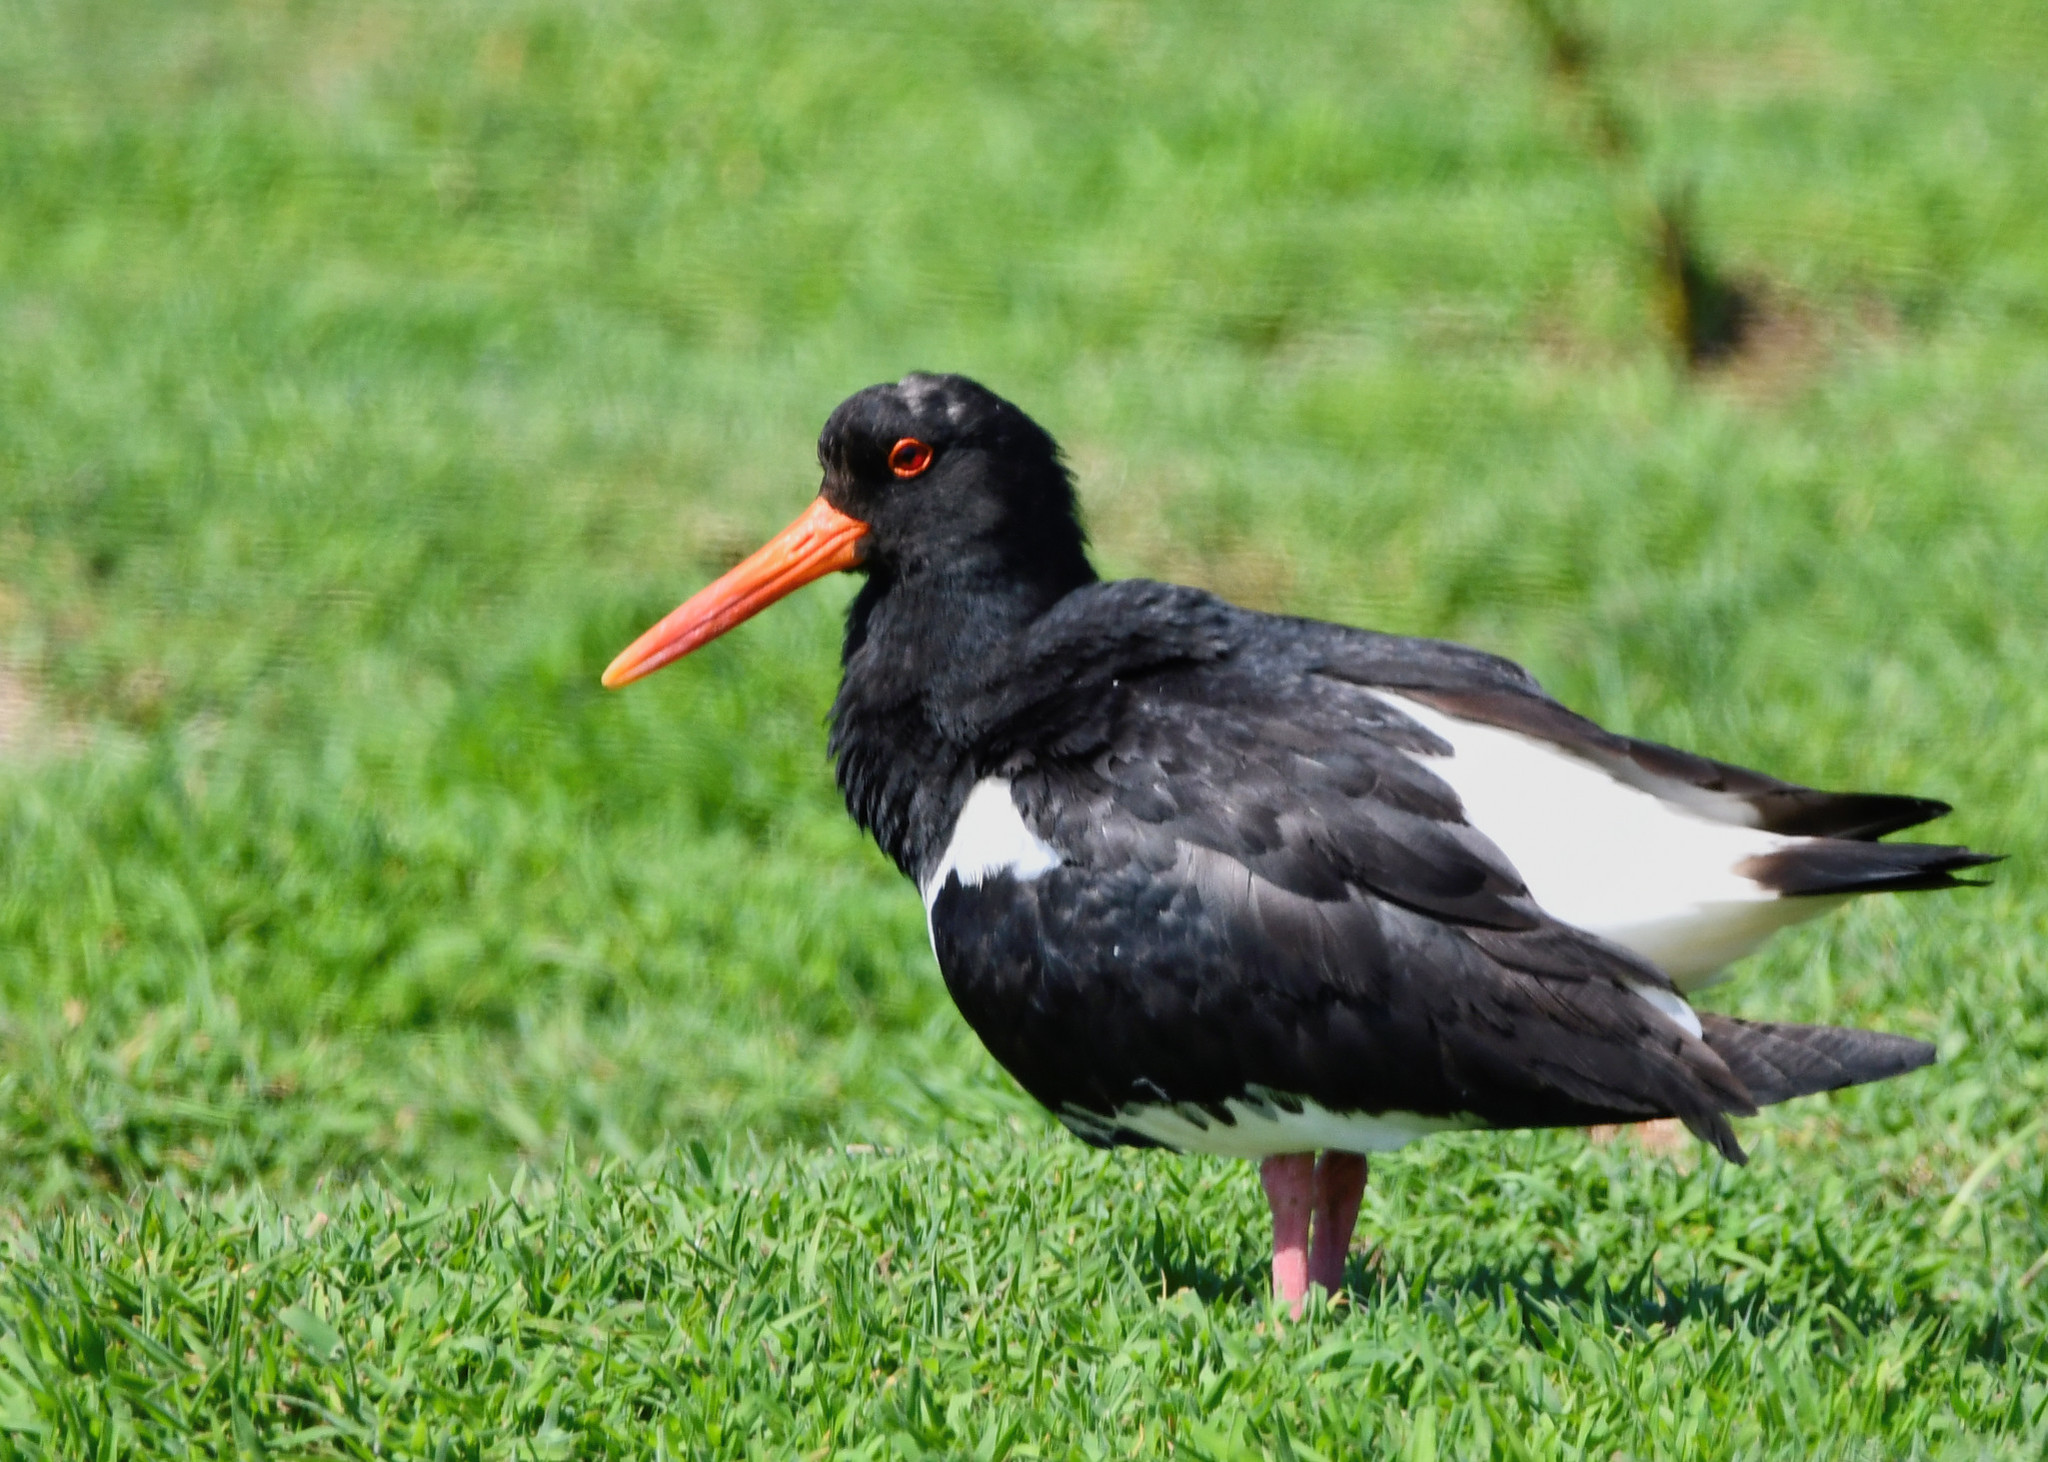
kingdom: Animalia
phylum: Chordata
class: Aves
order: Charadriiformes
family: Haematopodidae
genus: Haematopus
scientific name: Haematopus ostralegus
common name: Eurasian oystercatcher
